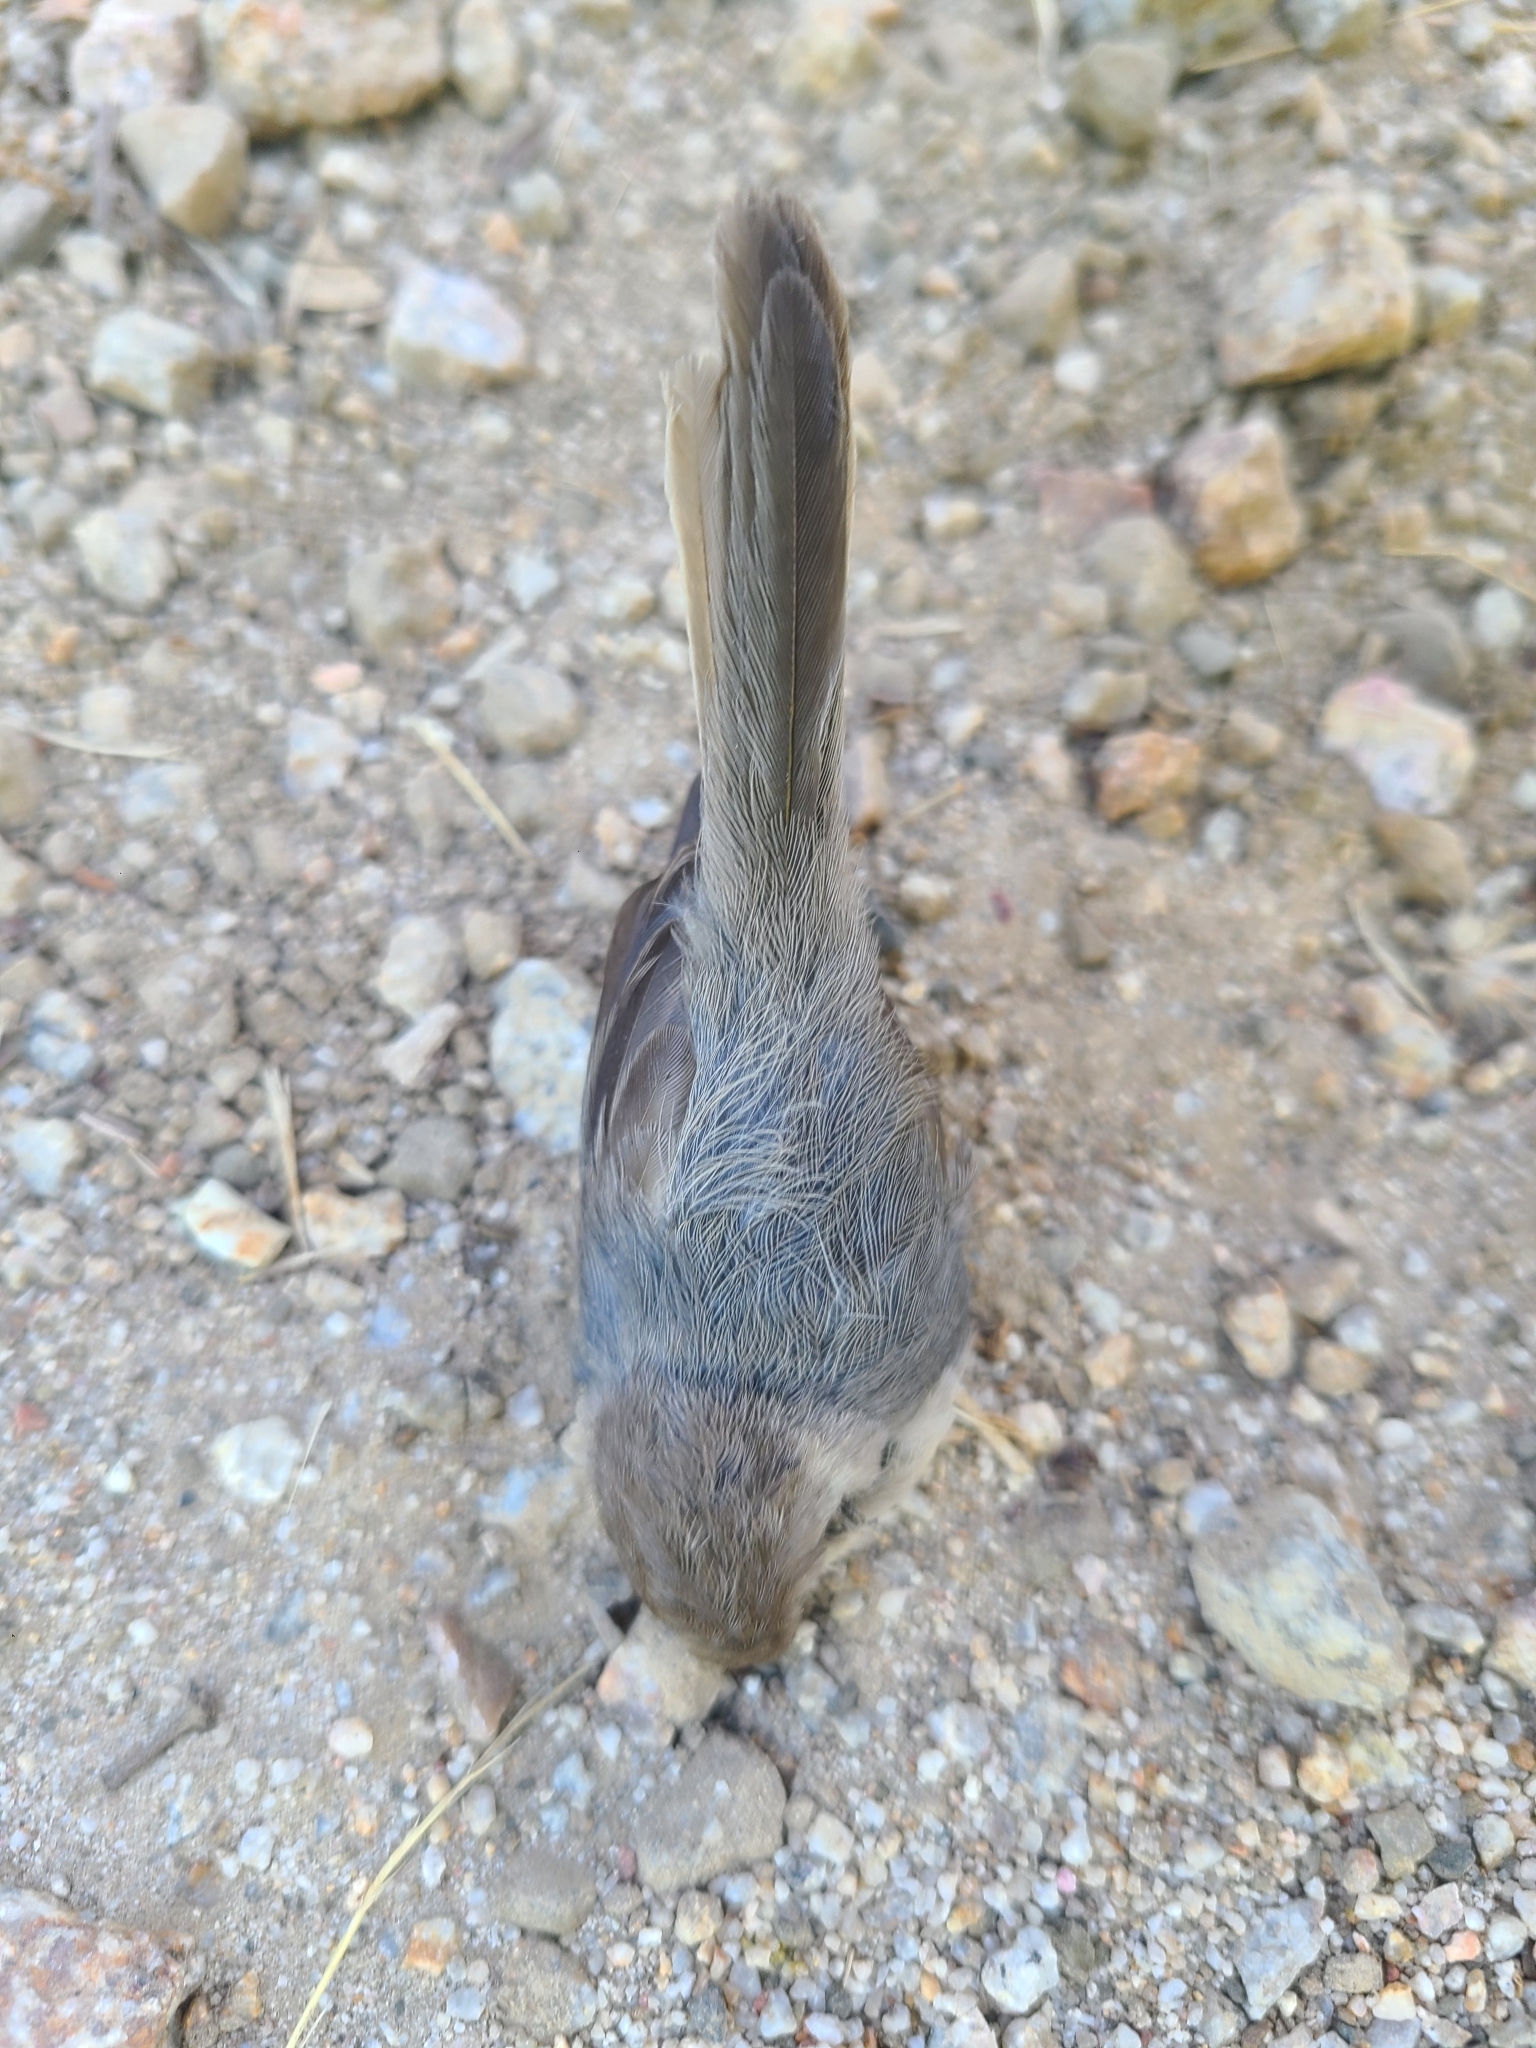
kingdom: Animalia
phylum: Chordata
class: Aves
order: Passeriformes
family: Aegithalidae
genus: Psaltriparus
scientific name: Psaltriparus minimus
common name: American bushtit
